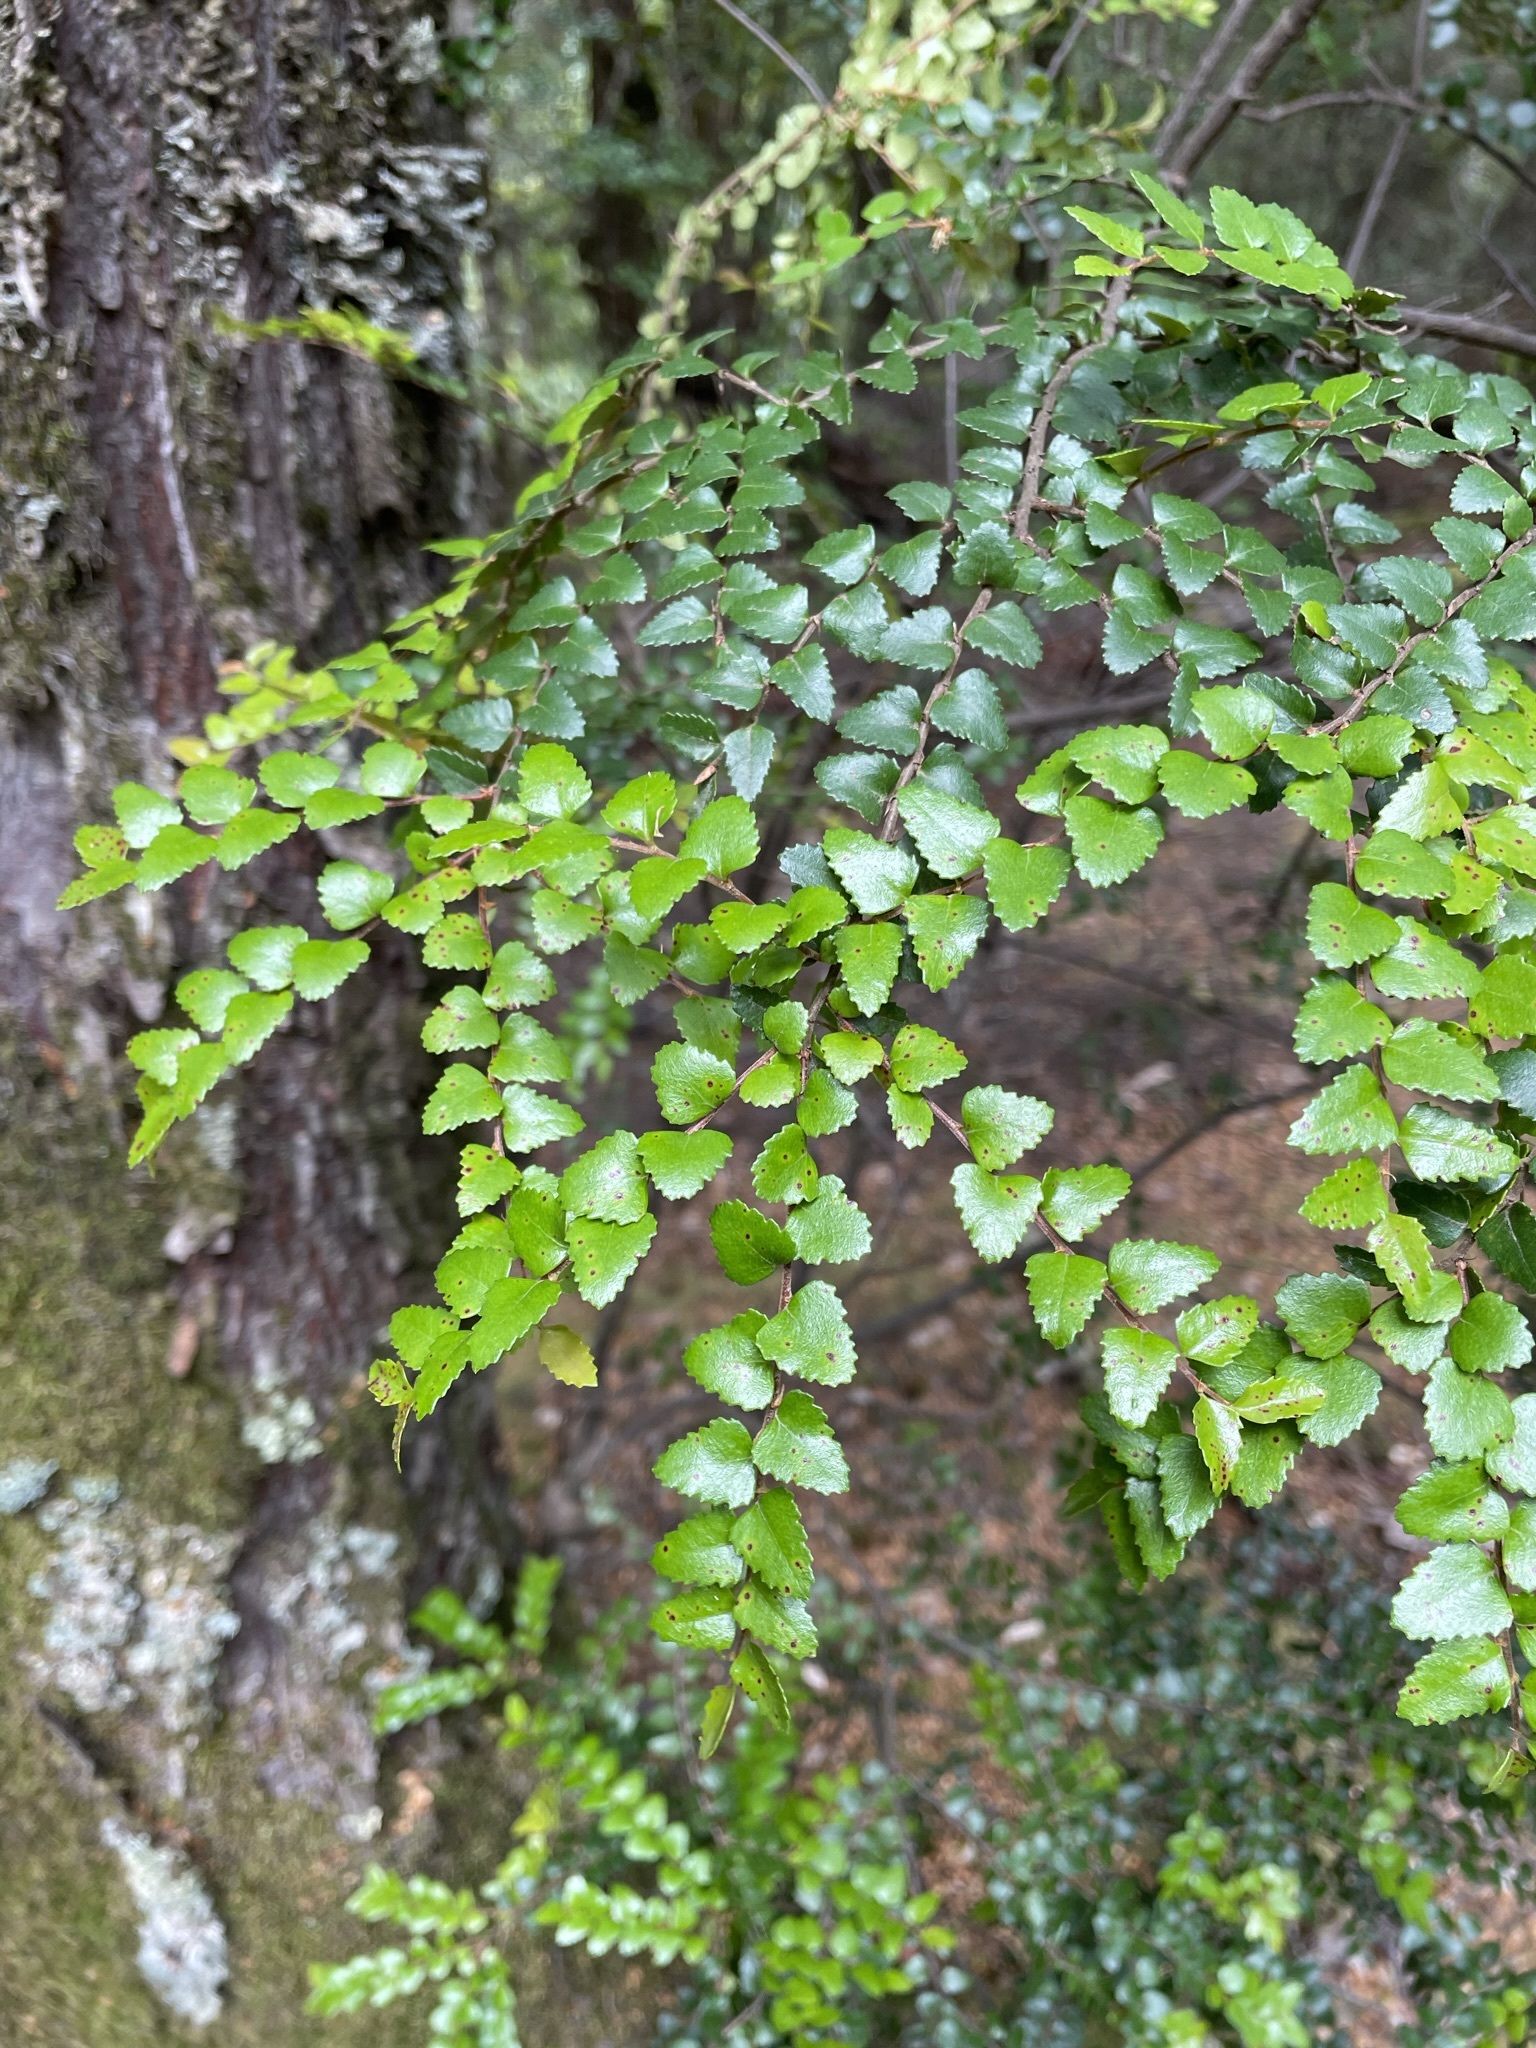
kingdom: Plantae
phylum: Tracheophyta
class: Magnoliopsida
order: Fagales
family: Nothofagaceae
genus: Nothofagus
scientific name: Nothofagus cunninghamii
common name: Myrtle beech
